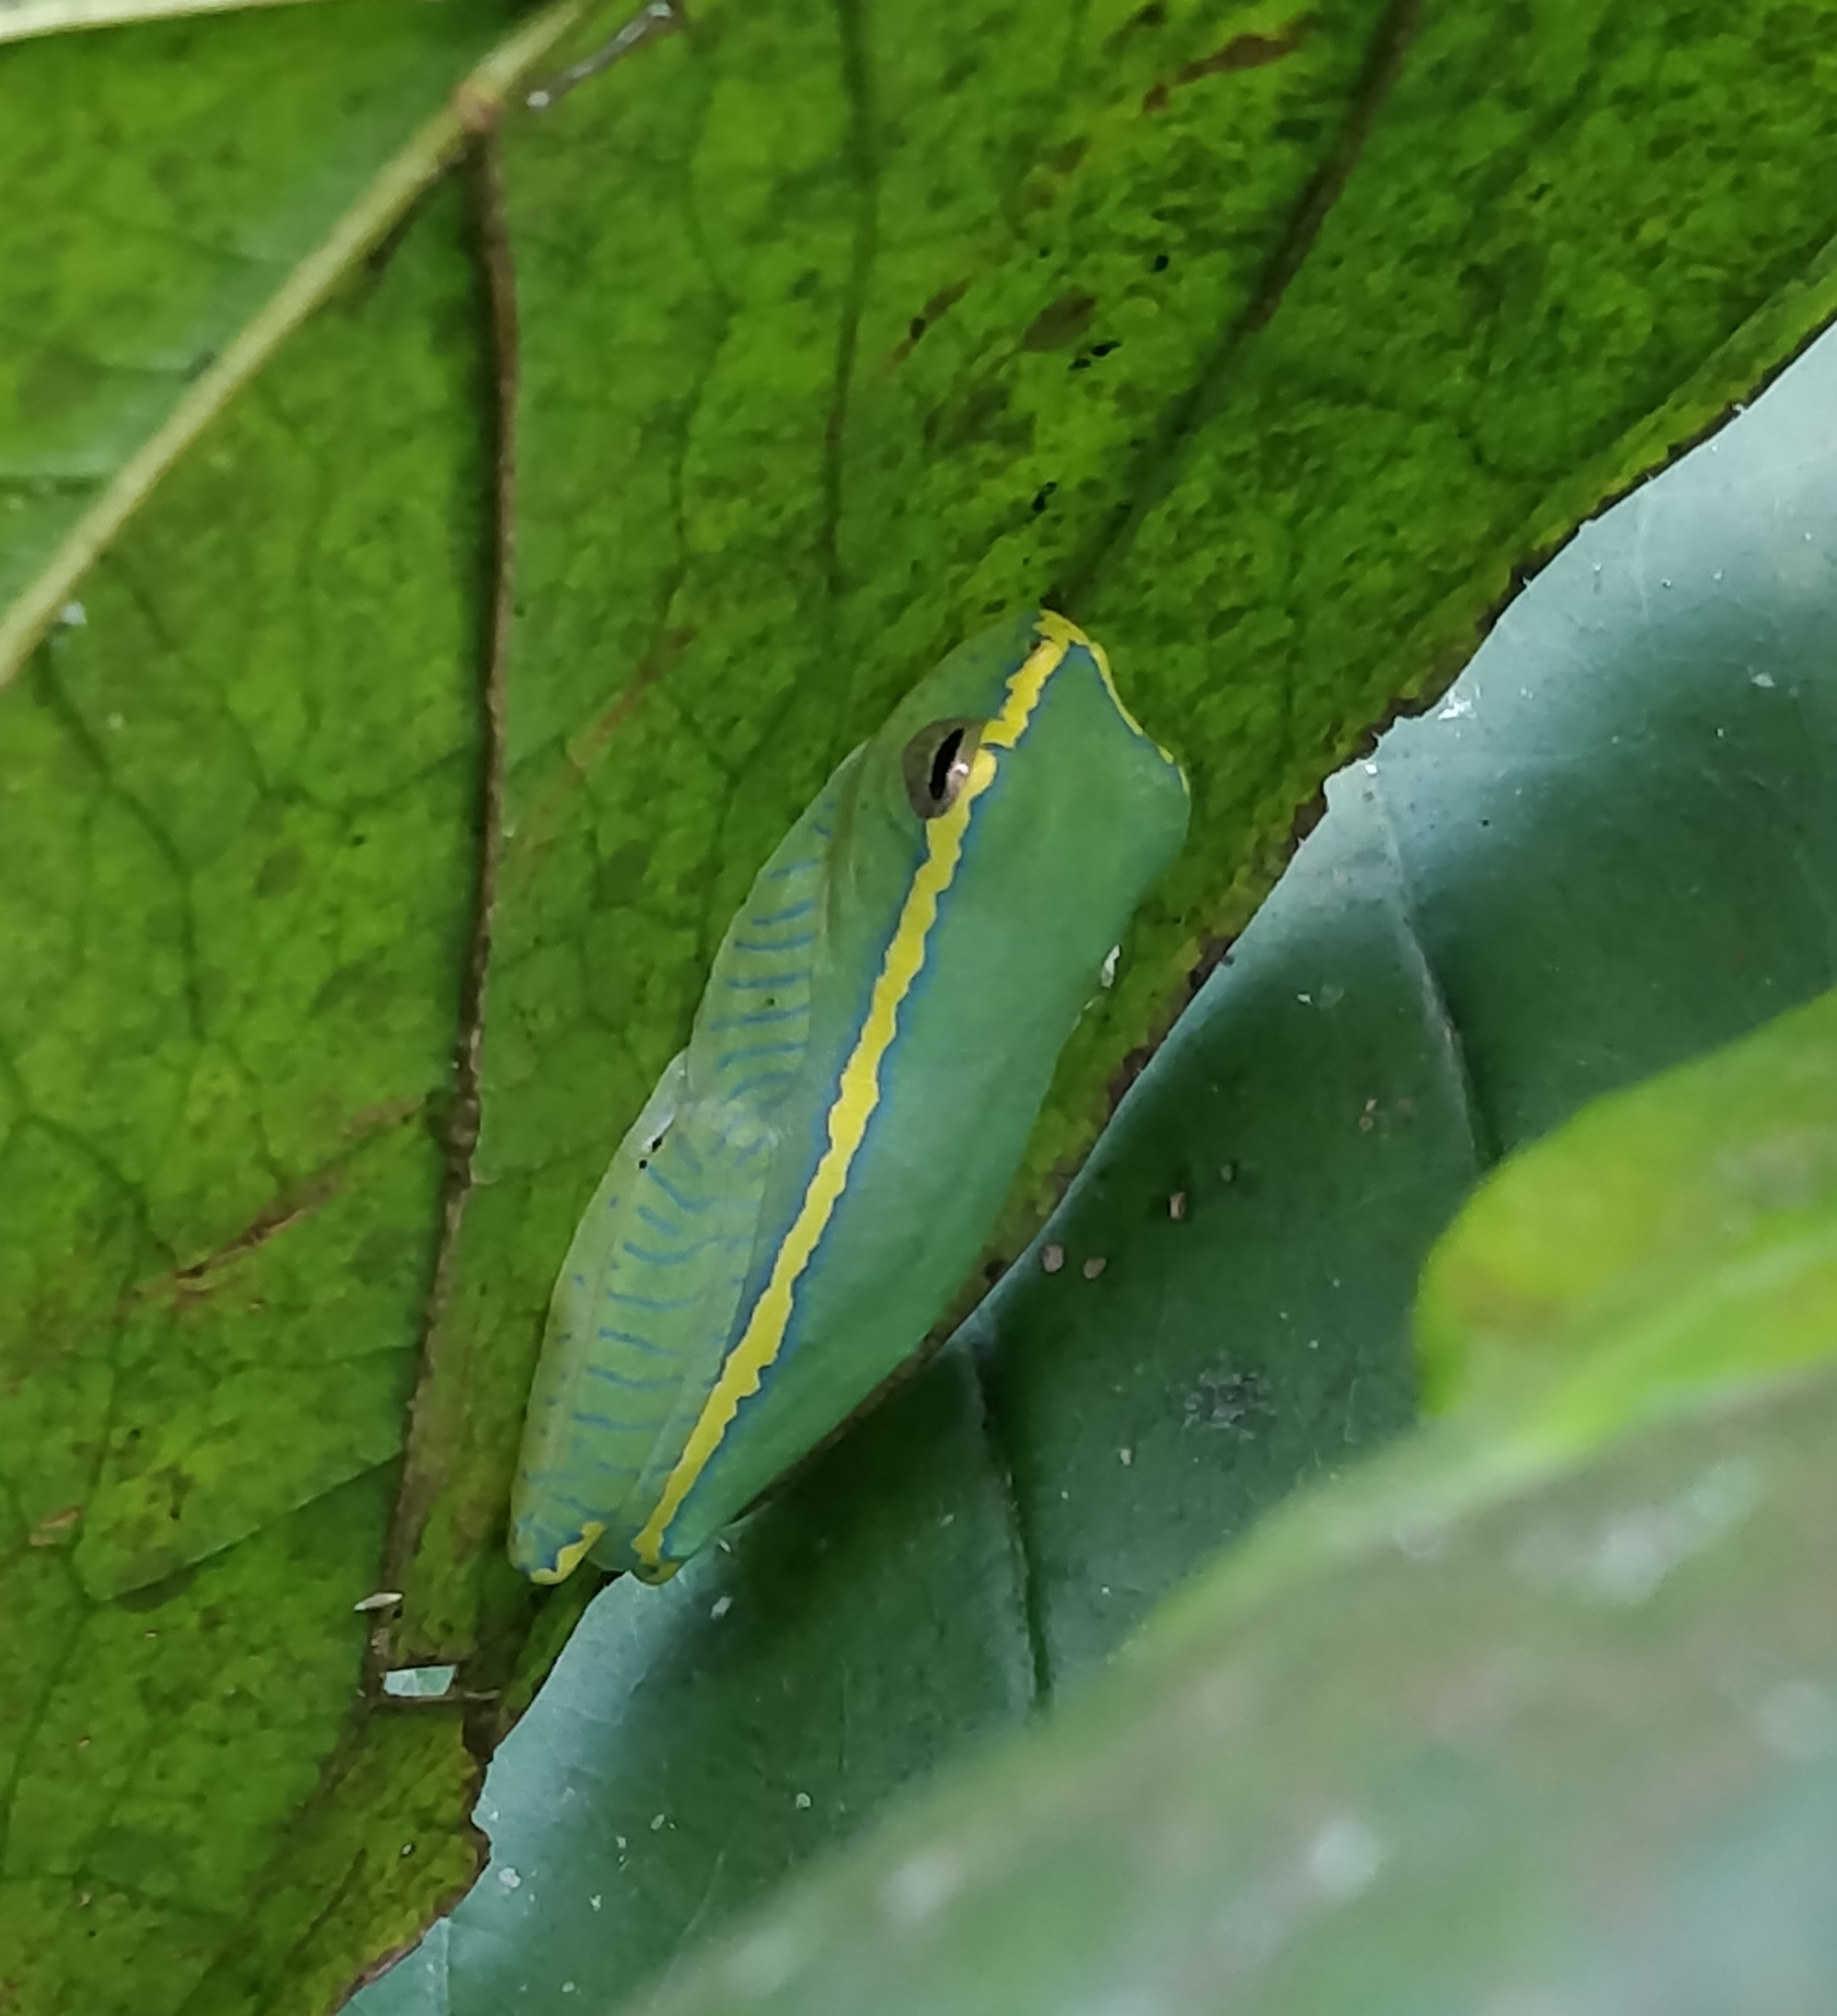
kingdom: Animalia
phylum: Chordata
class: Amphibia
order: Anura
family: Rhacophoridae
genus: Rhacophorus
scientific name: Rhacophorus lateralis
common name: Boulenger's tree frog
